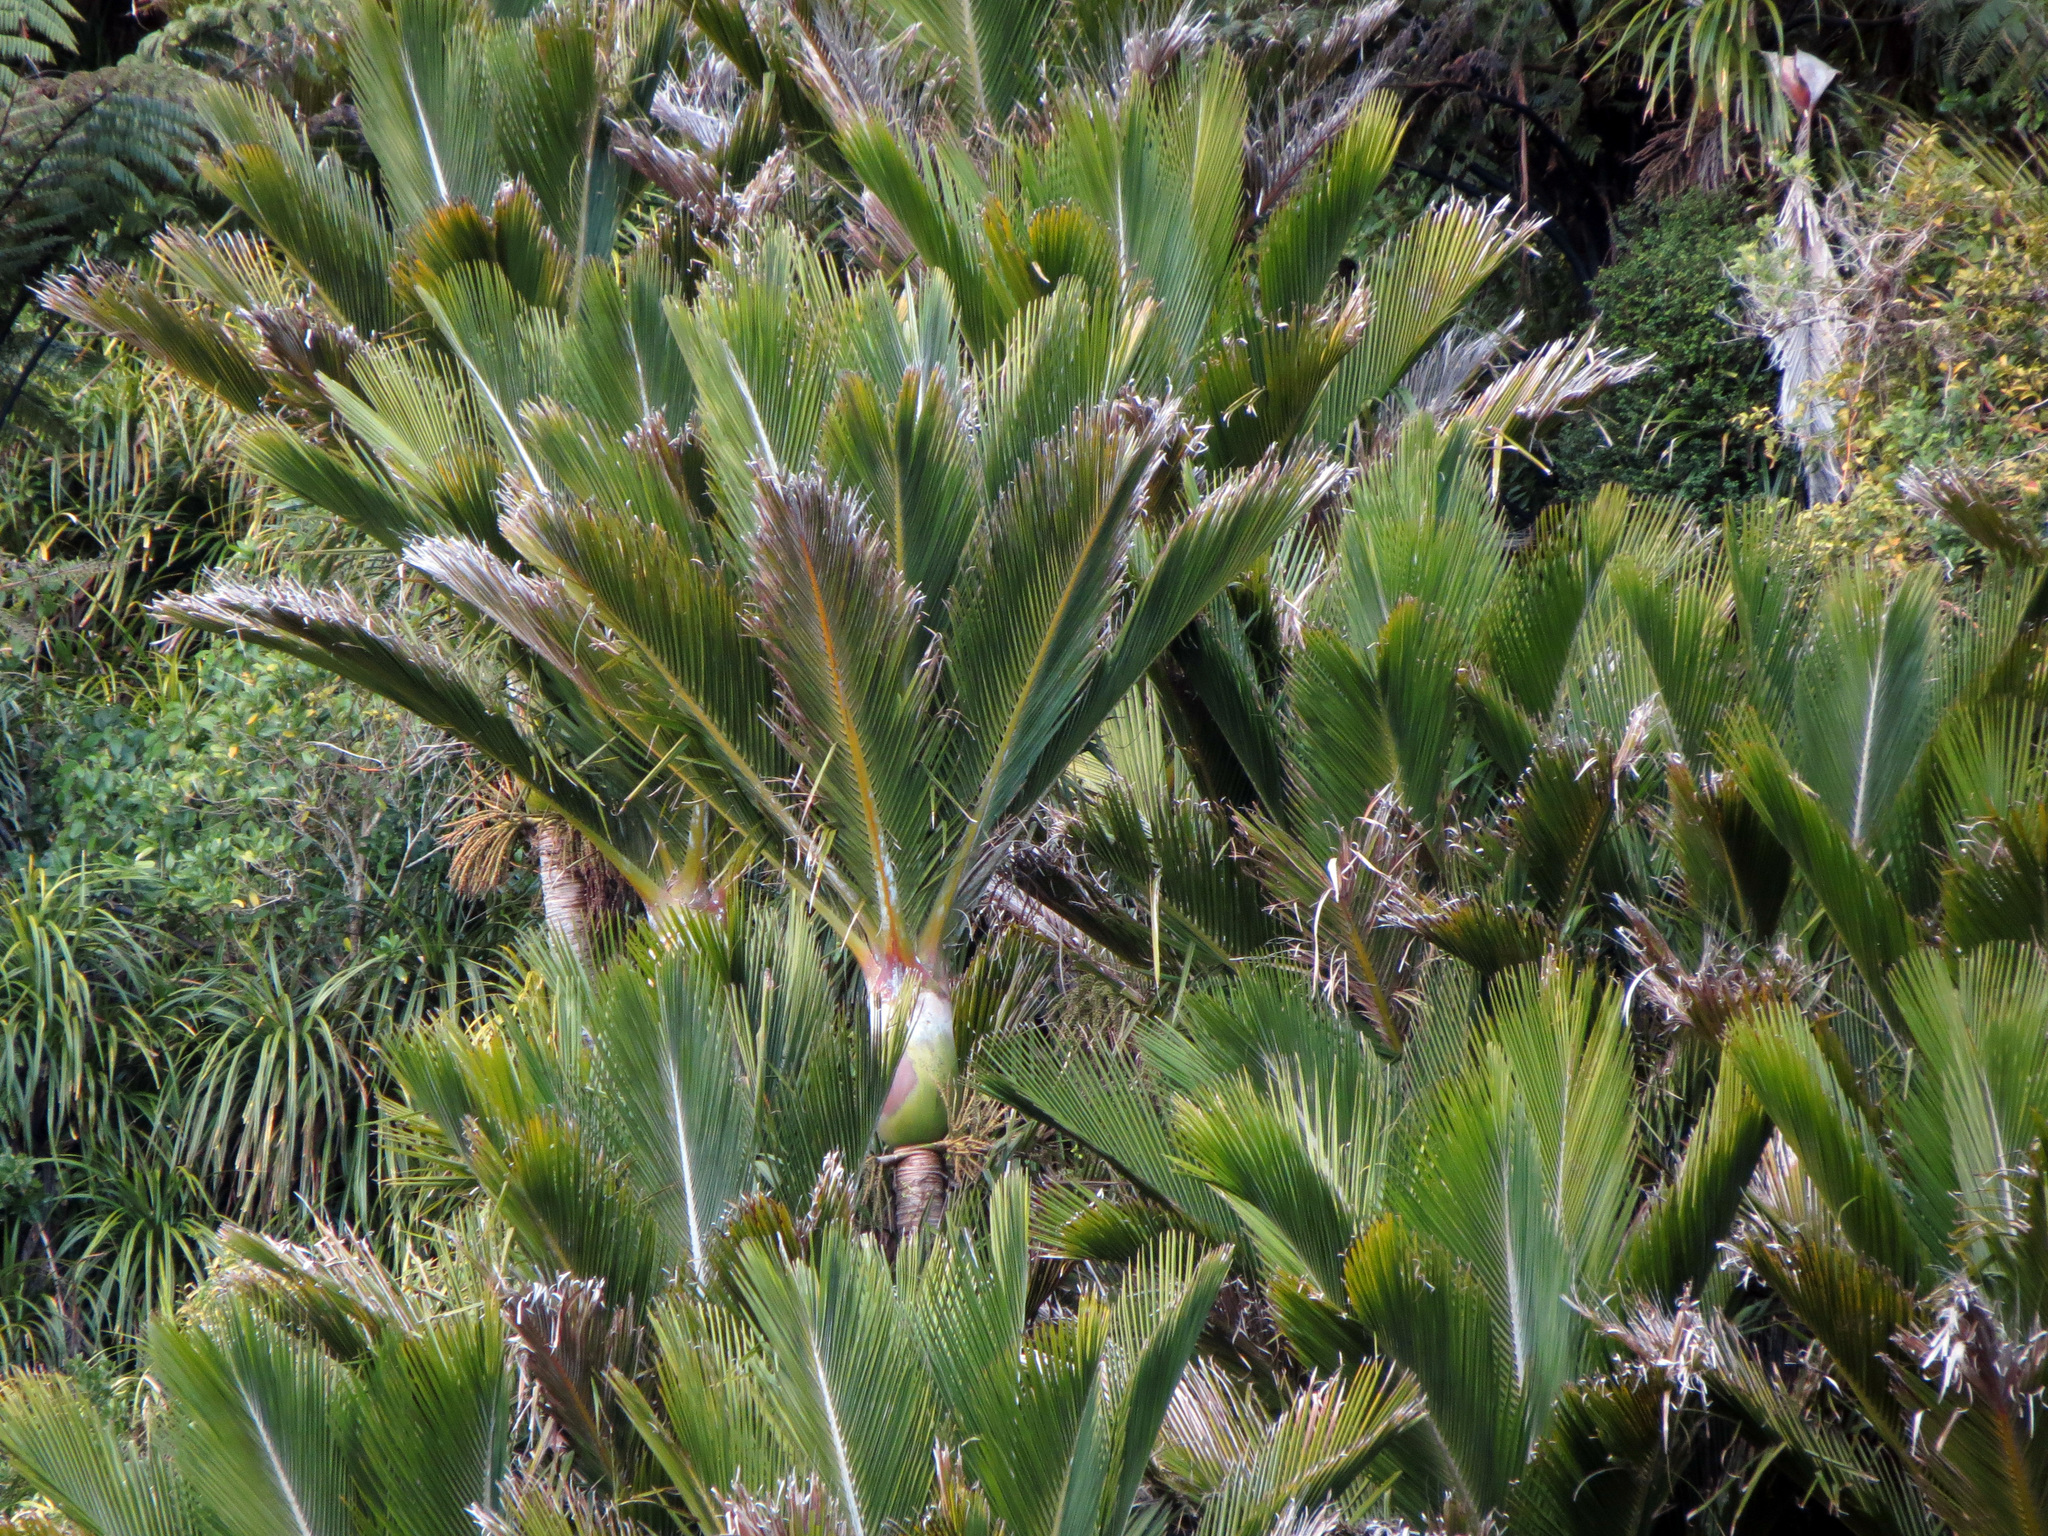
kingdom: Plantae
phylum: Tracheophyta
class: Liliopsida
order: Arecales
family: Arecaceae
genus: Rhopalostylis
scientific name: Rhopalostylis sapida
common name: Feather-duster palm
